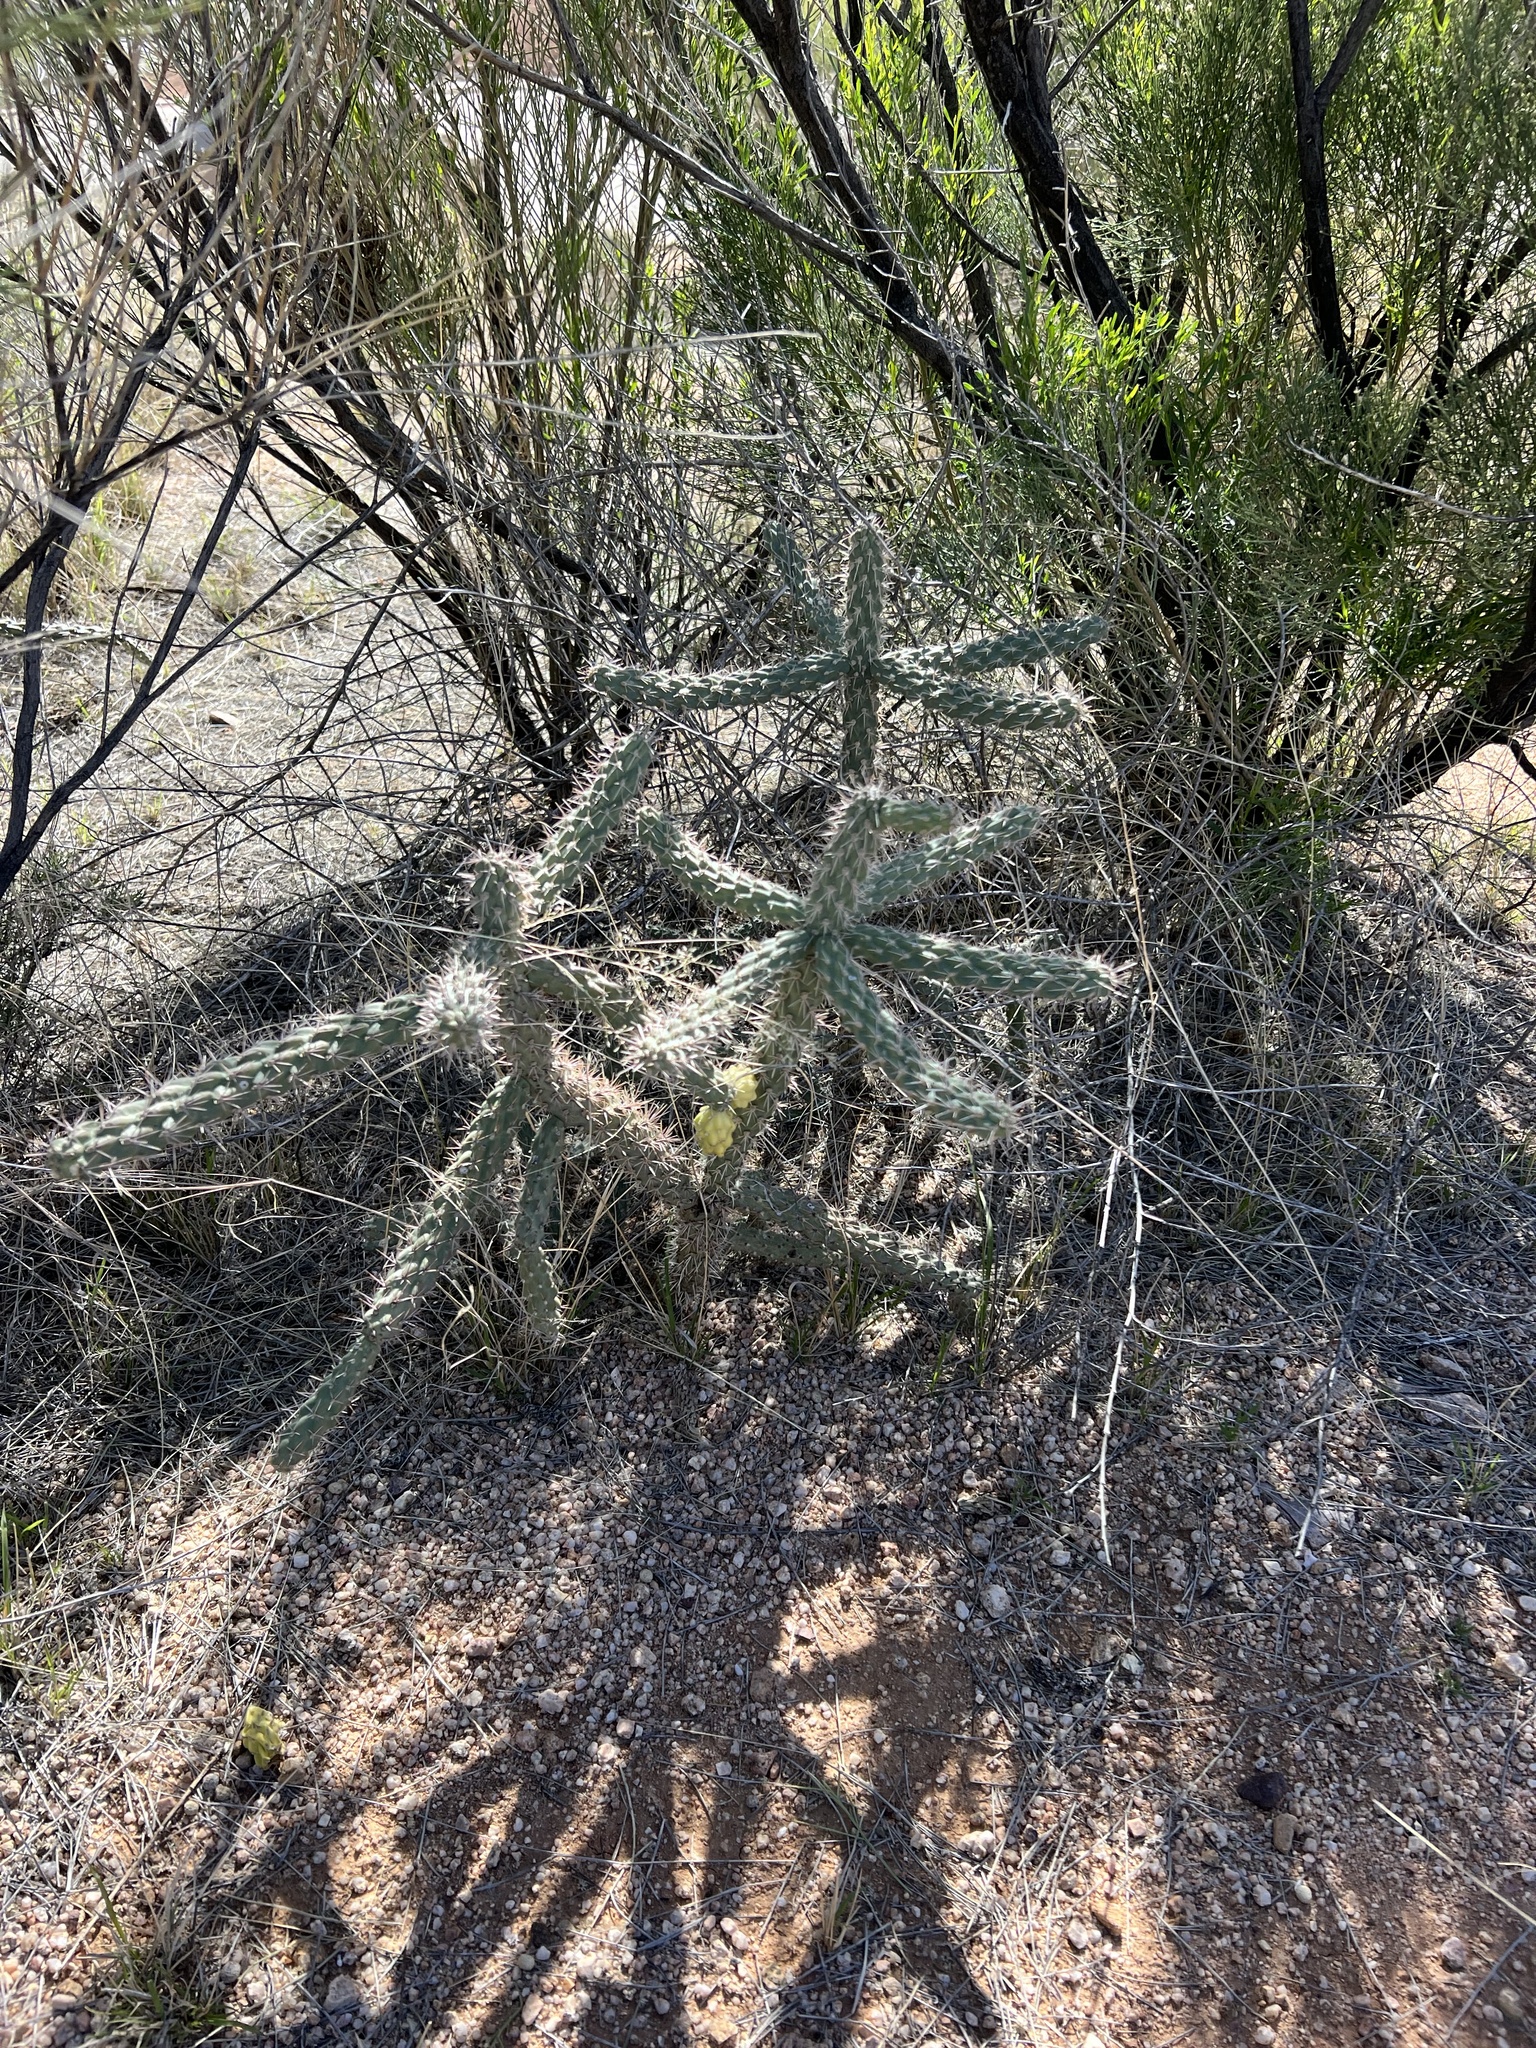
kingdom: Plantae
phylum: Tracheophyta
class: Magnoliopsida
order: Caryophyllales
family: Cactaceae
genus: Cylindropuntia
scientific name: Cylindropuntia imbricata
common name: Candelabrum cactus
